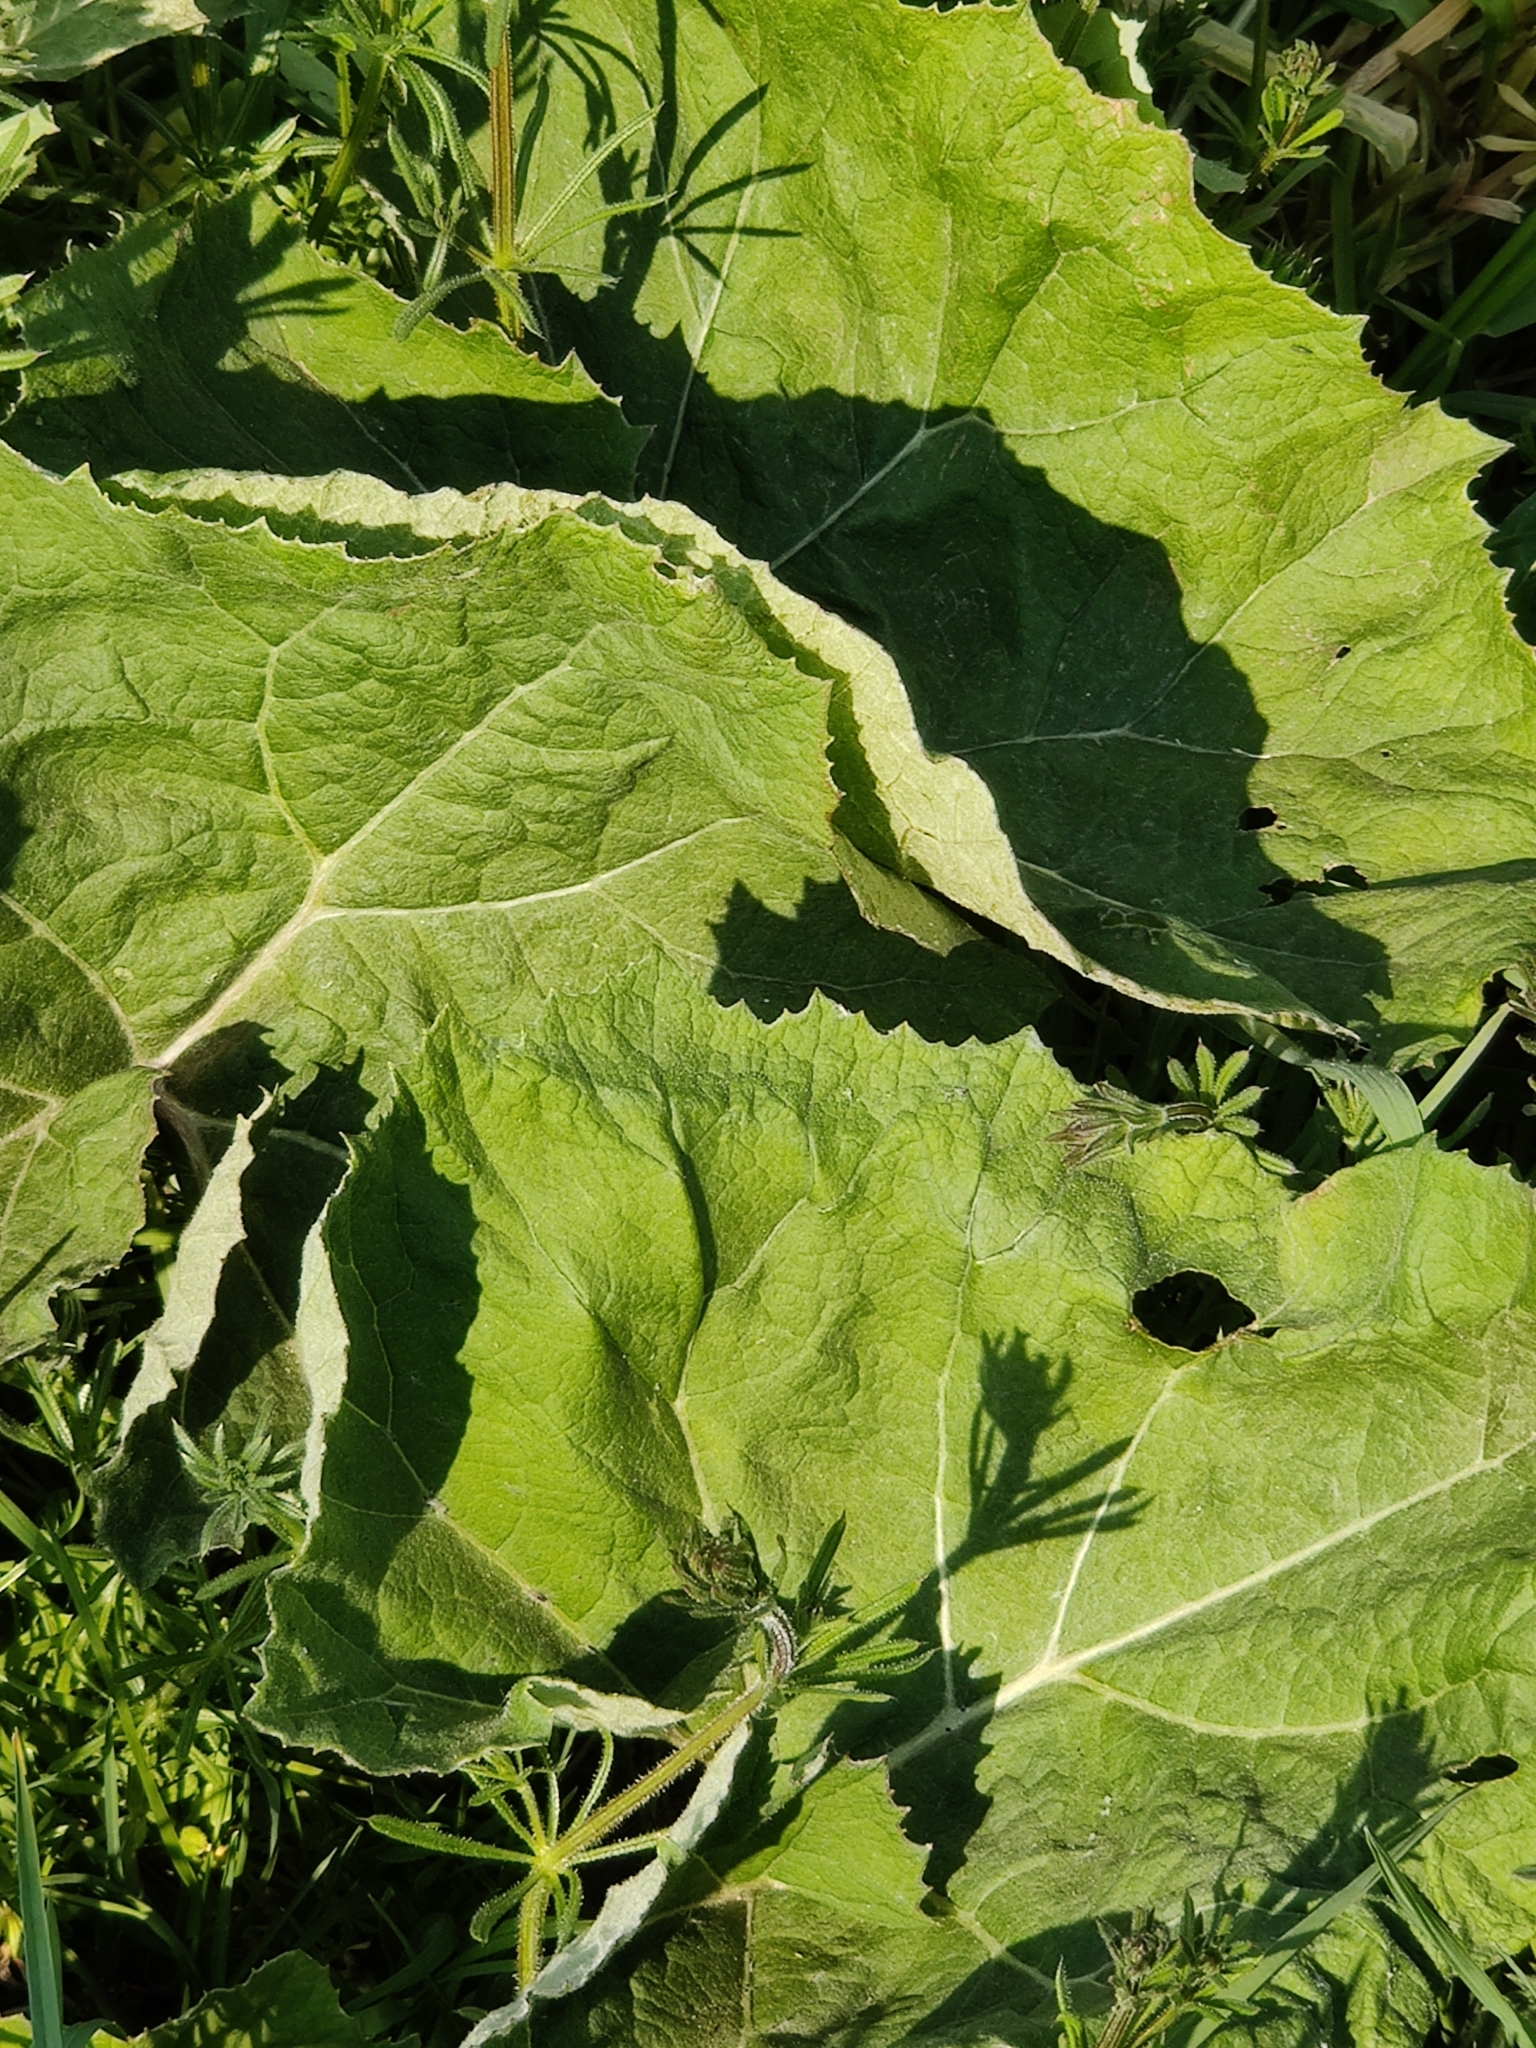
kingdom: Plantae
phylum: Tracheophyta
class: Magnoliopsida
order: Asterales
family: Asteraceae
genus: Petasites
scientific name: Petasites hybridus
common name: Butterbur
